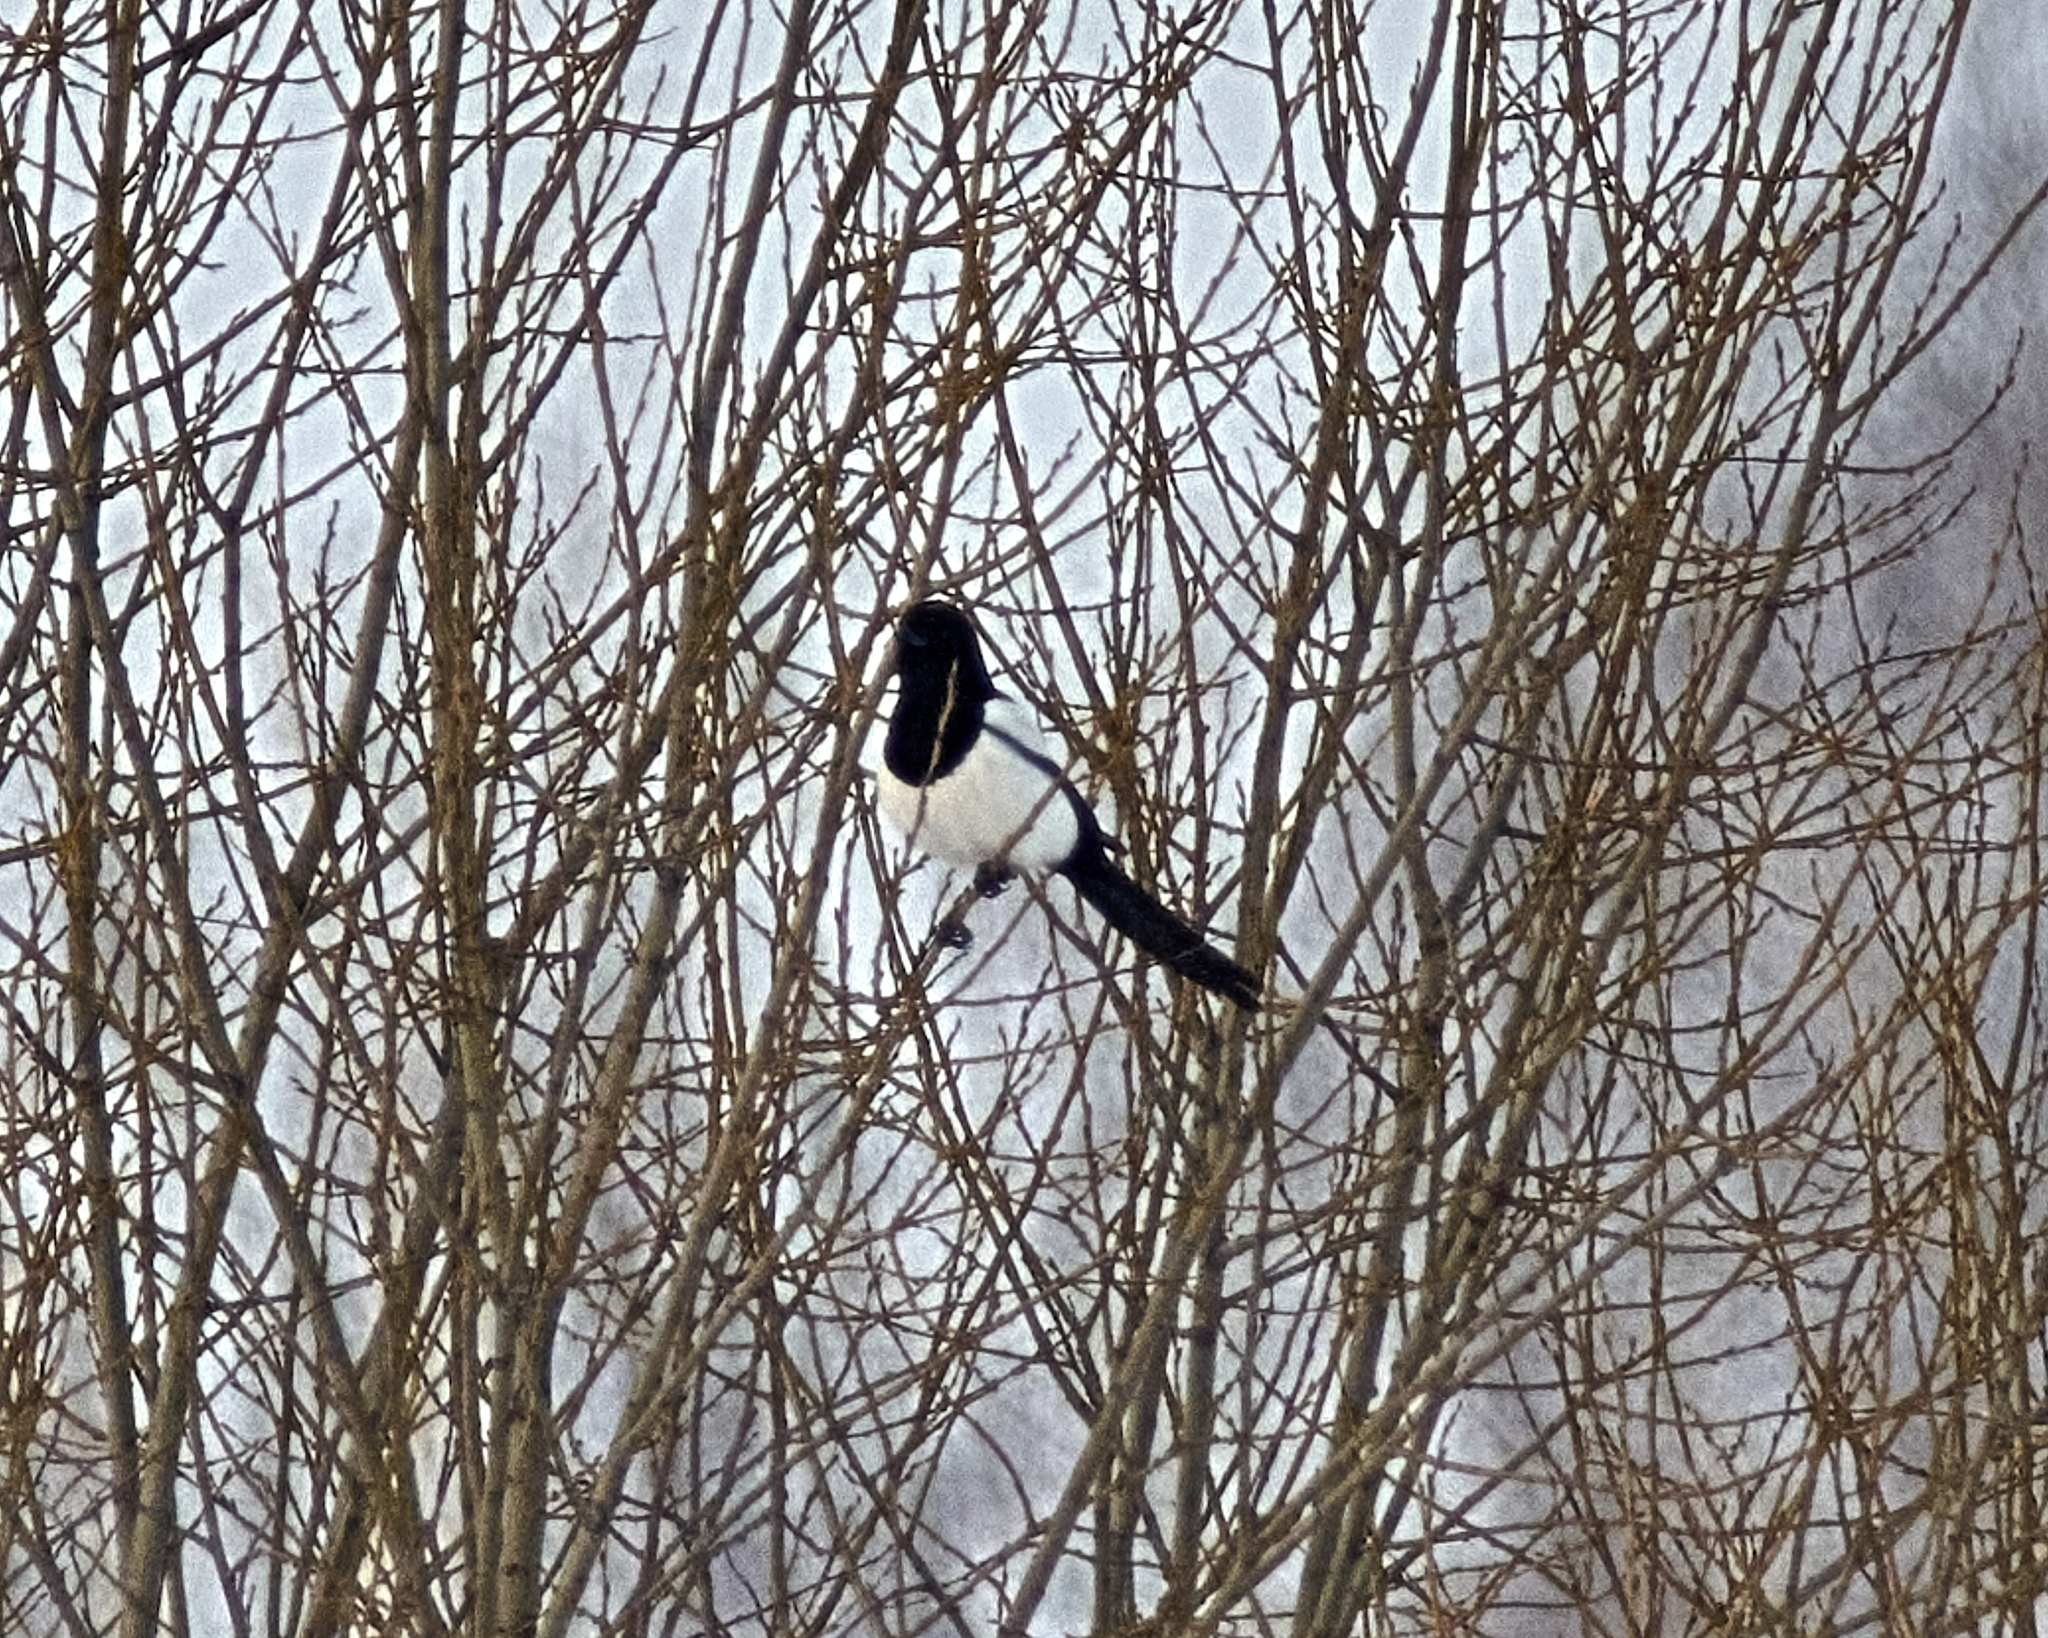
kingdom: Animalia
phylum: Chordata
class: Aves
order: Passeriformes
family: Corvidae
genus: Pica
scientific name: Pica pica
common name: Eurasian magpie
